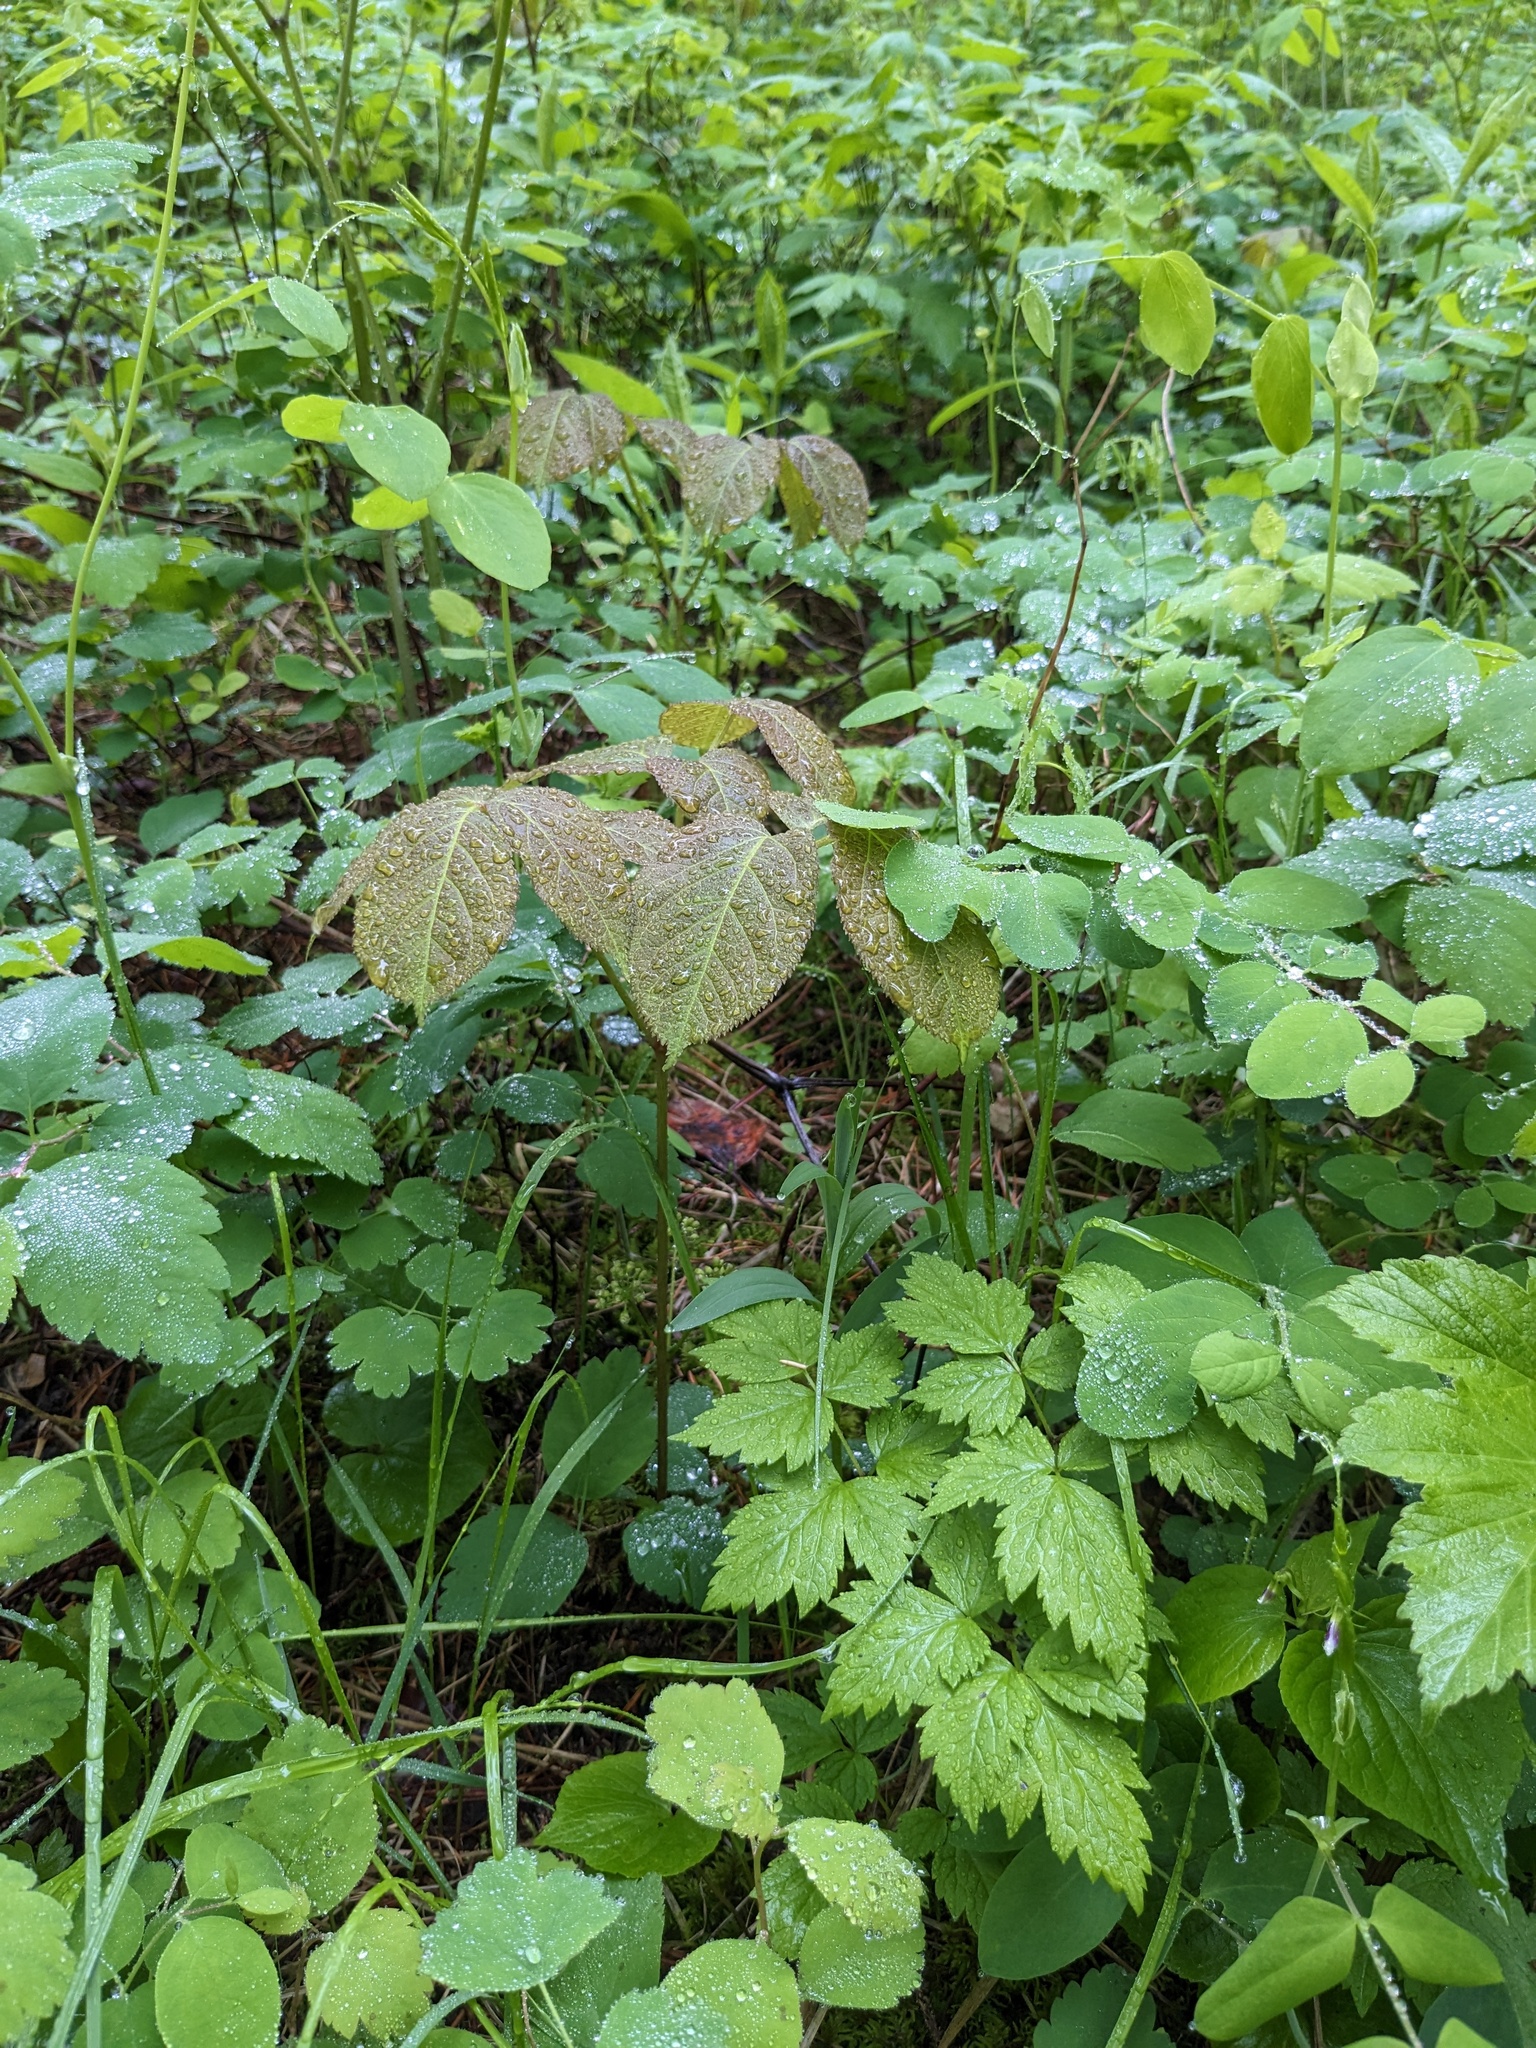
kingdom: Plantae
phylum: Tracheophyta
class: Magnoliopsida
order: Apiales
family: Araliaceae
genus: Aralia
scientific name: Aralia nudicaulis
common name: Wild sarsaparilla
